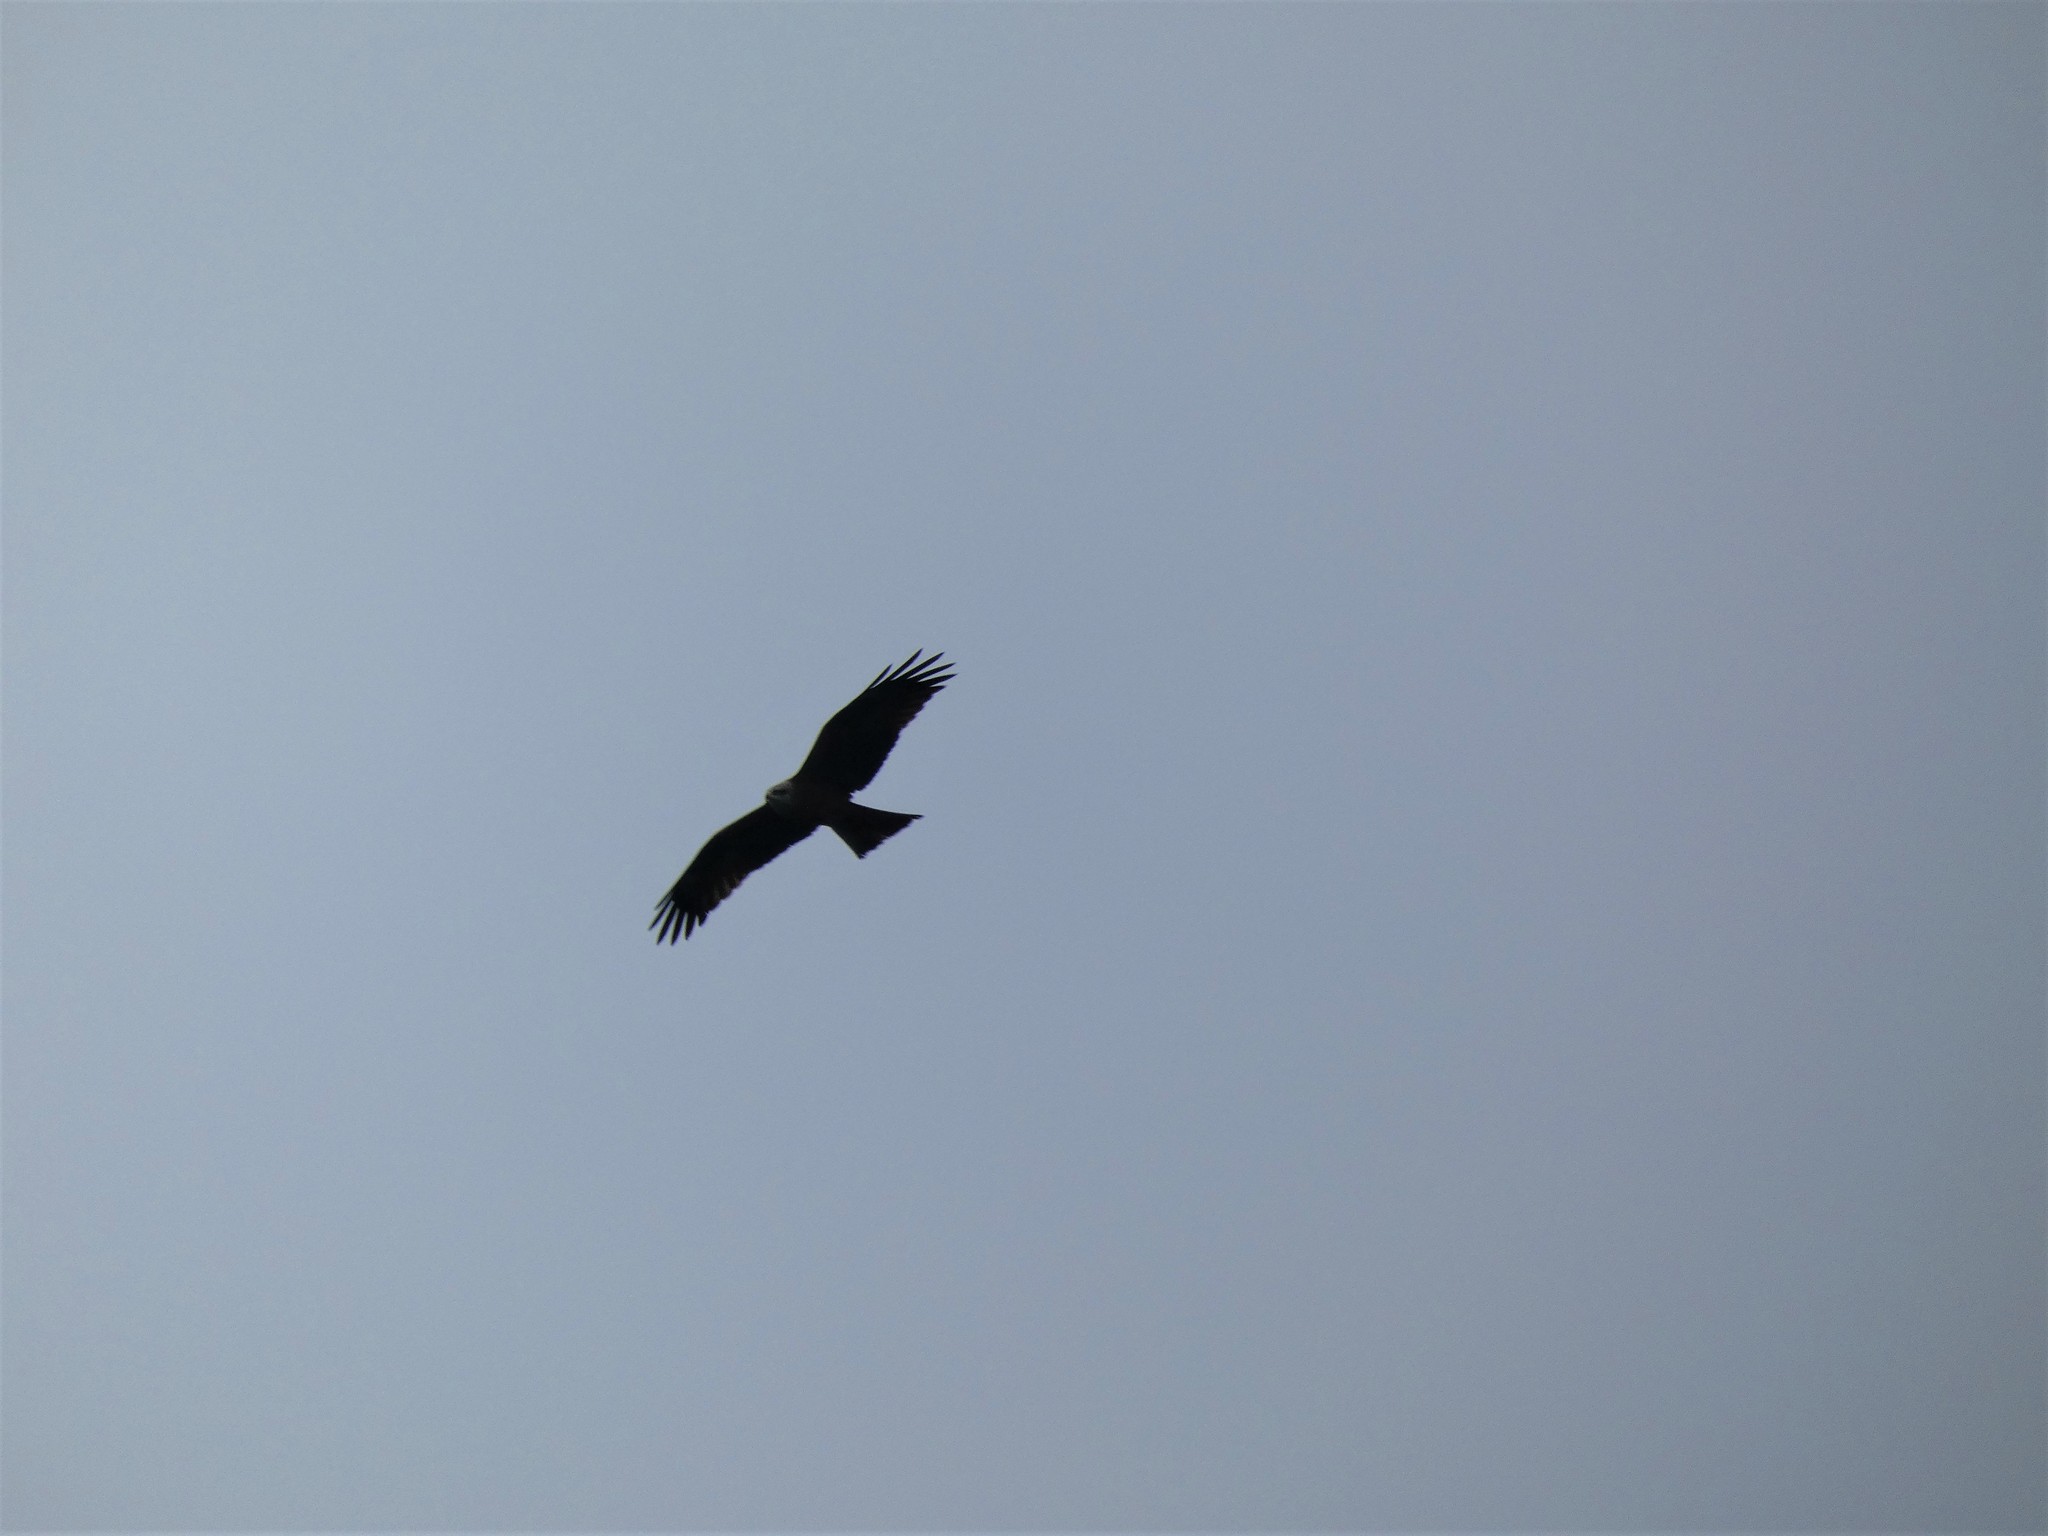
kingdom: Animalia
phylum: Chordata
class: Aves
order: Accipitriformes
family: Accipitridae
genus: Milvus
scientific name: Milvus migrans
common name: Black kite
